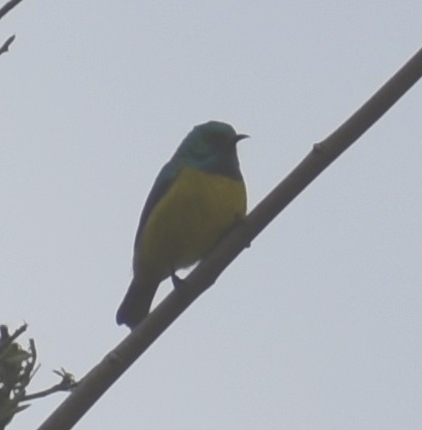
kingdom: Animalia
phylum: Chordata
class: Aves
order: Passeriformes
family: Nectariniidae
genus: Hedydipna
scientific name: Hedydipna collaris
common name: Collared sunbird
